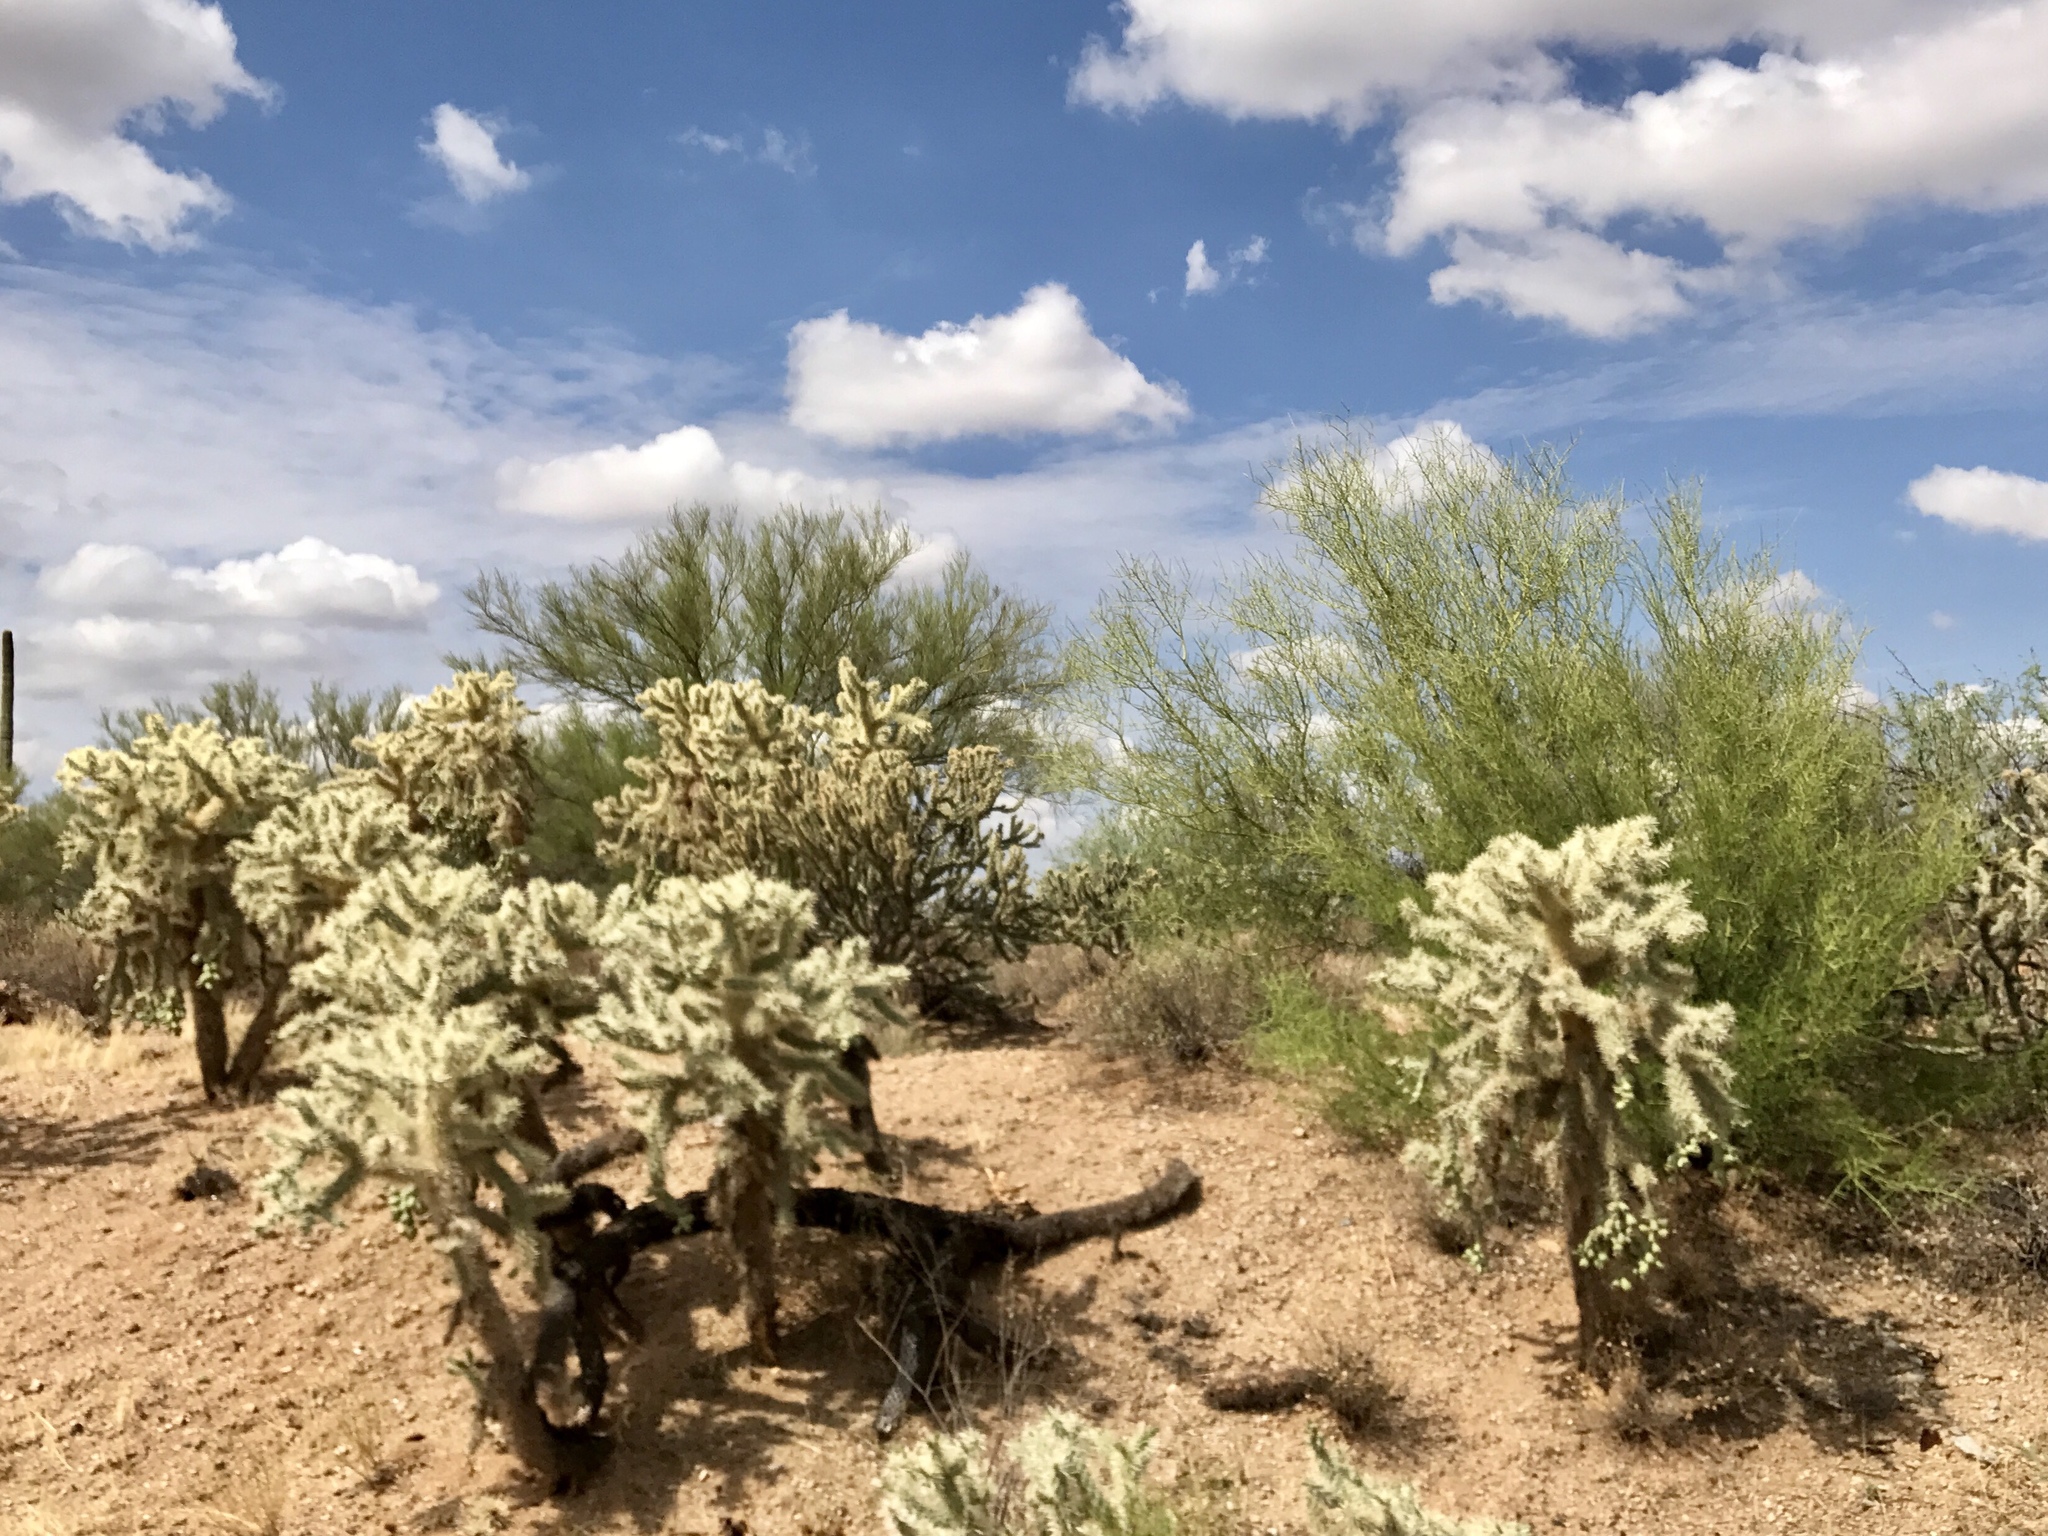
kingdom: Plantae
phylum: Tracheophyta
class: Magnoliopsida
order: Caryophyllales
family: Cactaceae
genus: Cylindropuntia
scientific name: Cylindropuntia fulgida
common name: Jumping cholla
